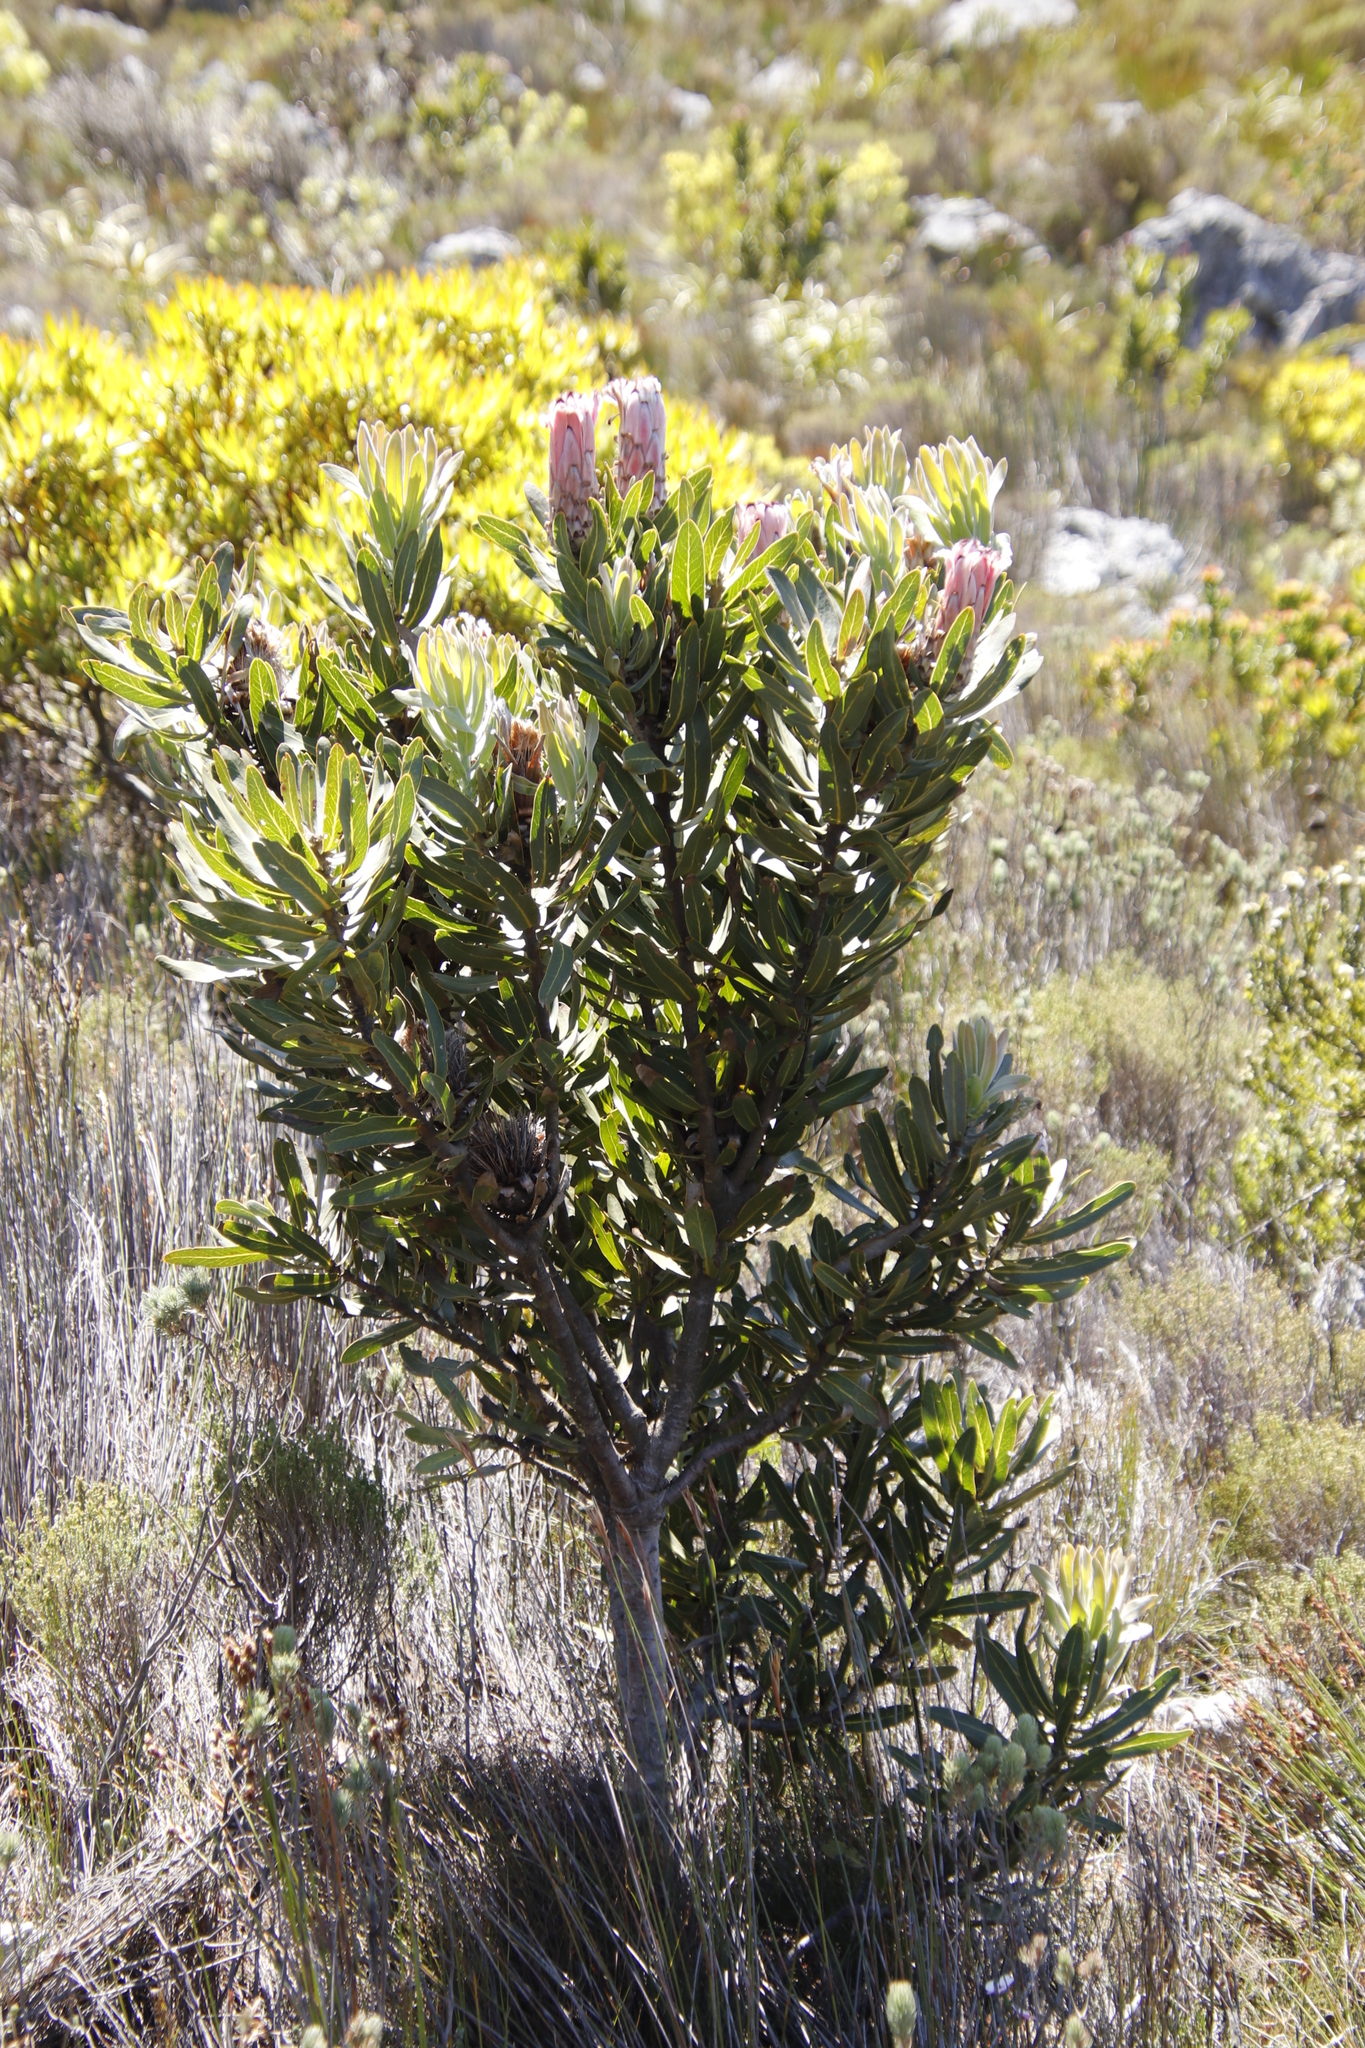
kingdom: Plantae
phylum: Tracheophyta
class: Magnoliopsida
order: Proteales
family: Proteaceae
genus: Protea
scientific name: Protea laurifolia
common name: Grey-leaf sugarbsh
